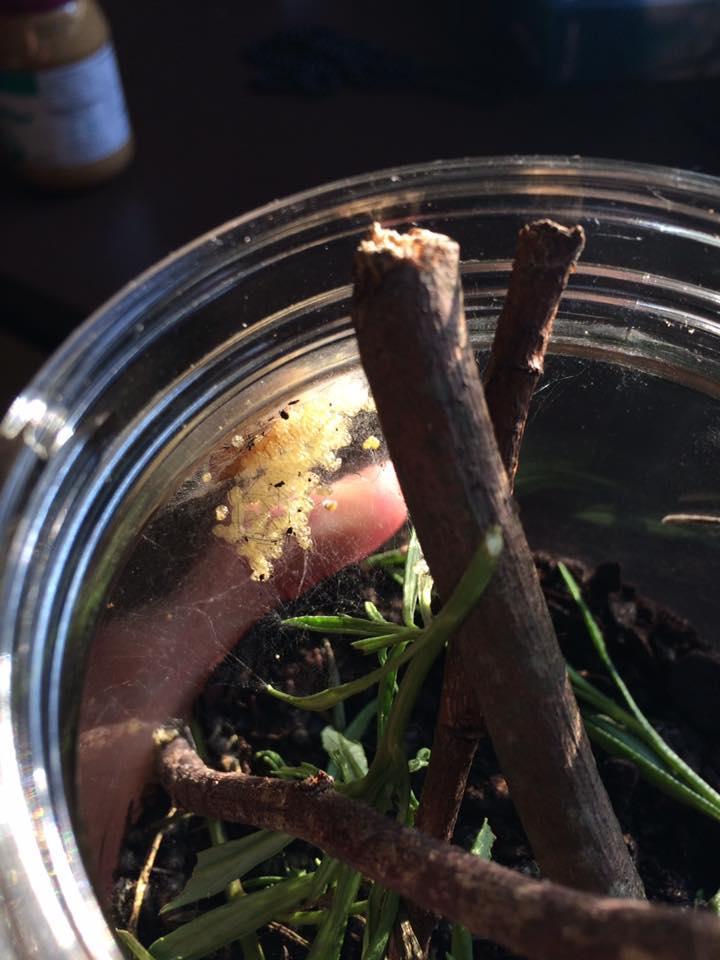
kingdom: Animalia
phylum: Arthropoda
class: Insecta
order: Lepidoptera
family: Erebidae
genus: Nyctemera
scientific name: Nyctemera
